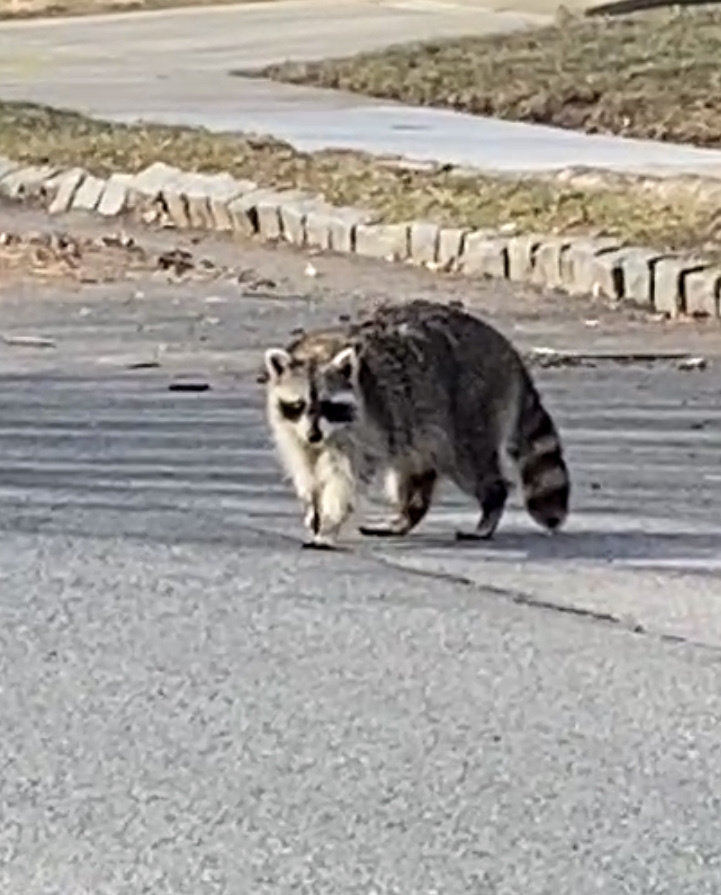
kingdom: Animalia
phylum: Chordata
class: Mammalia
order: Carnivora
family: Procyonidae
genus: Procyon
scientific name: Procyon lotor
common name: Raccoon
